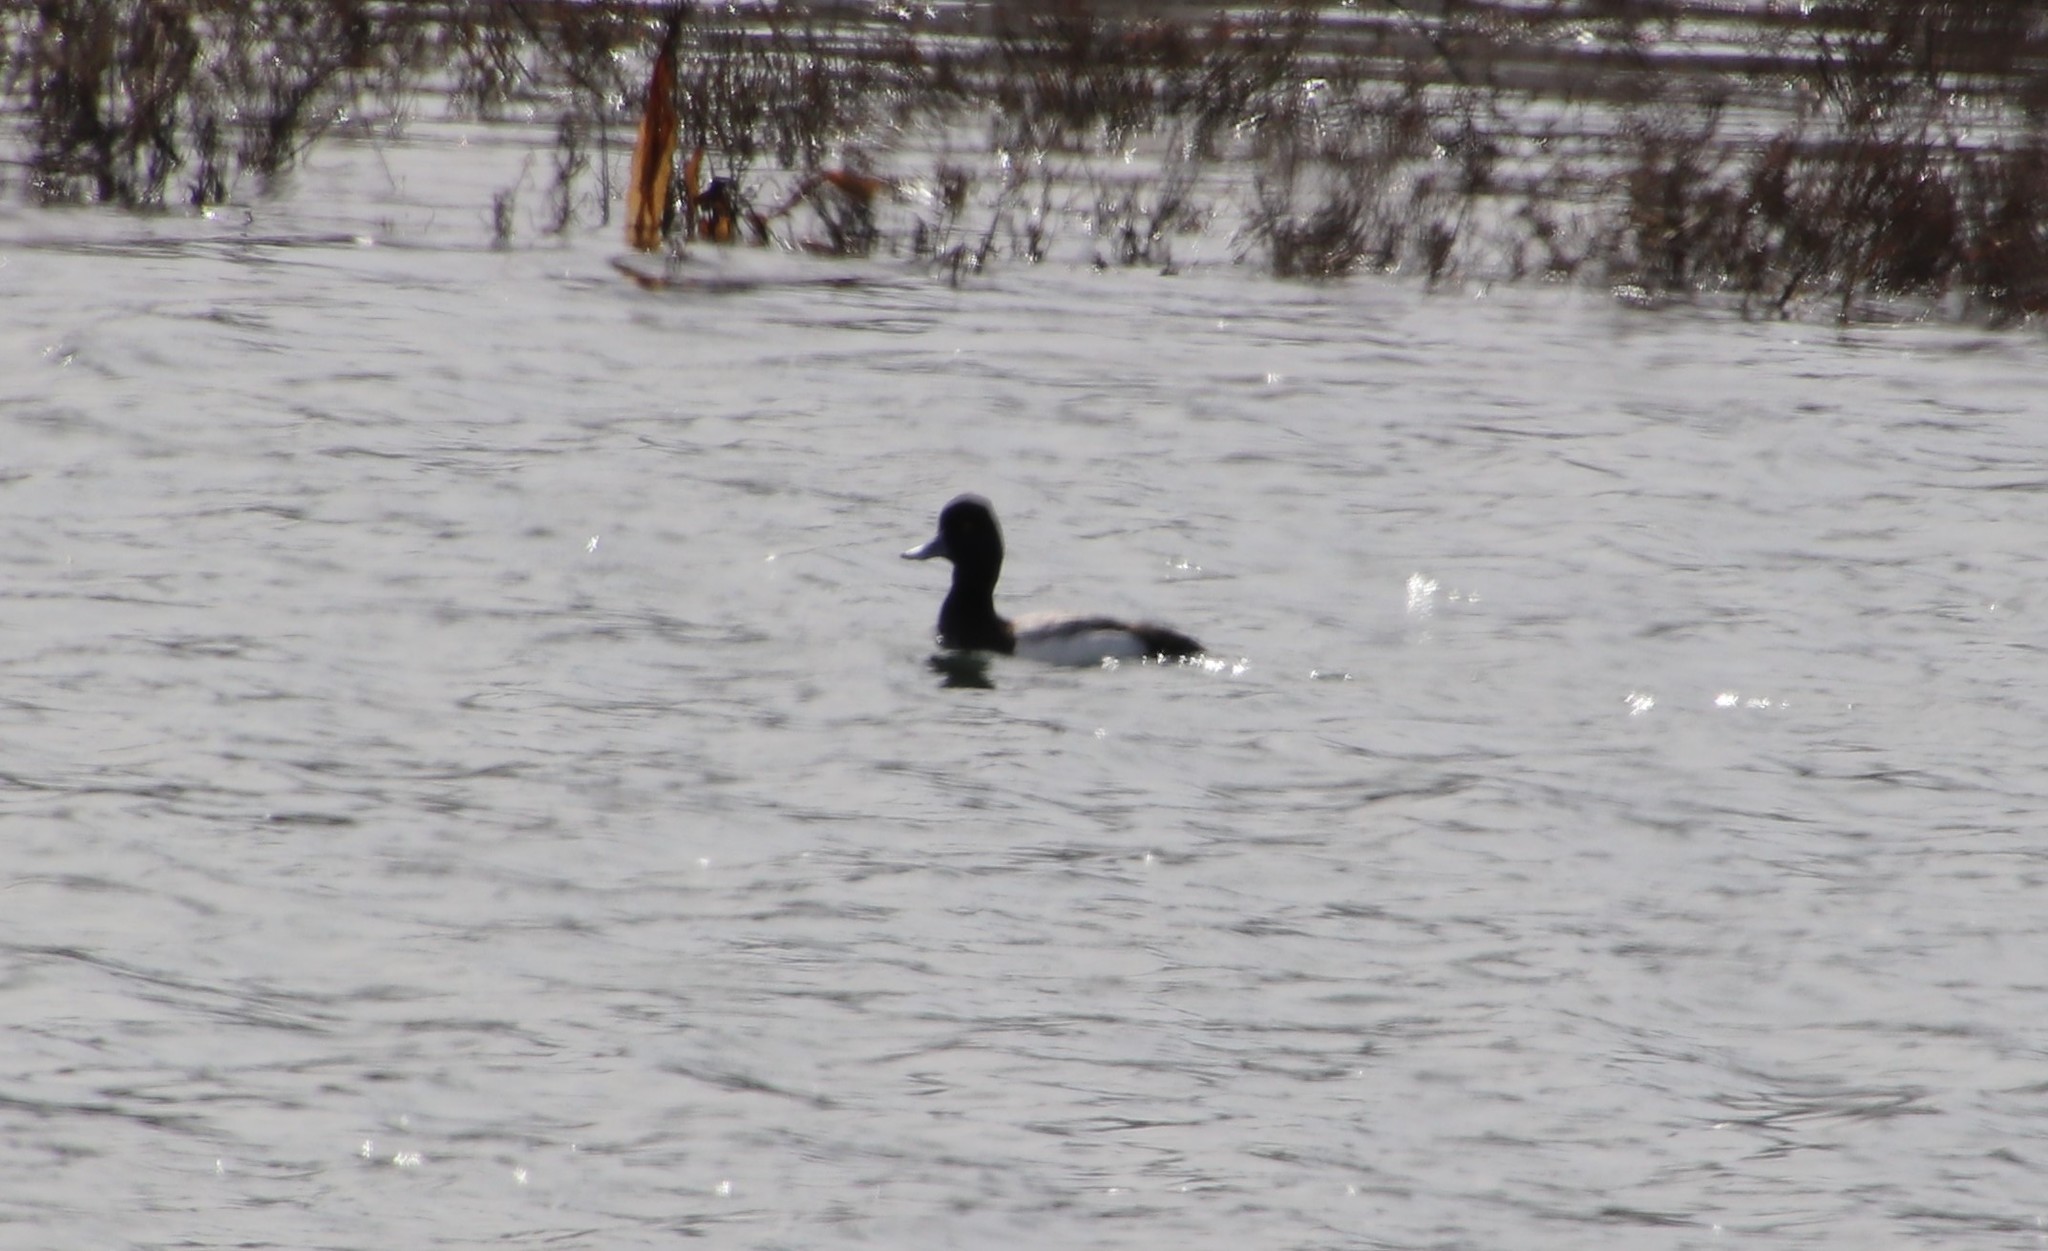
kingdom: Animalia
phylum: Chordata
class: Aves
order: Anseriformes
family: Anatidae
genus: Aythya
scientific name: Aythya affinis
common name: Lesser scaup
